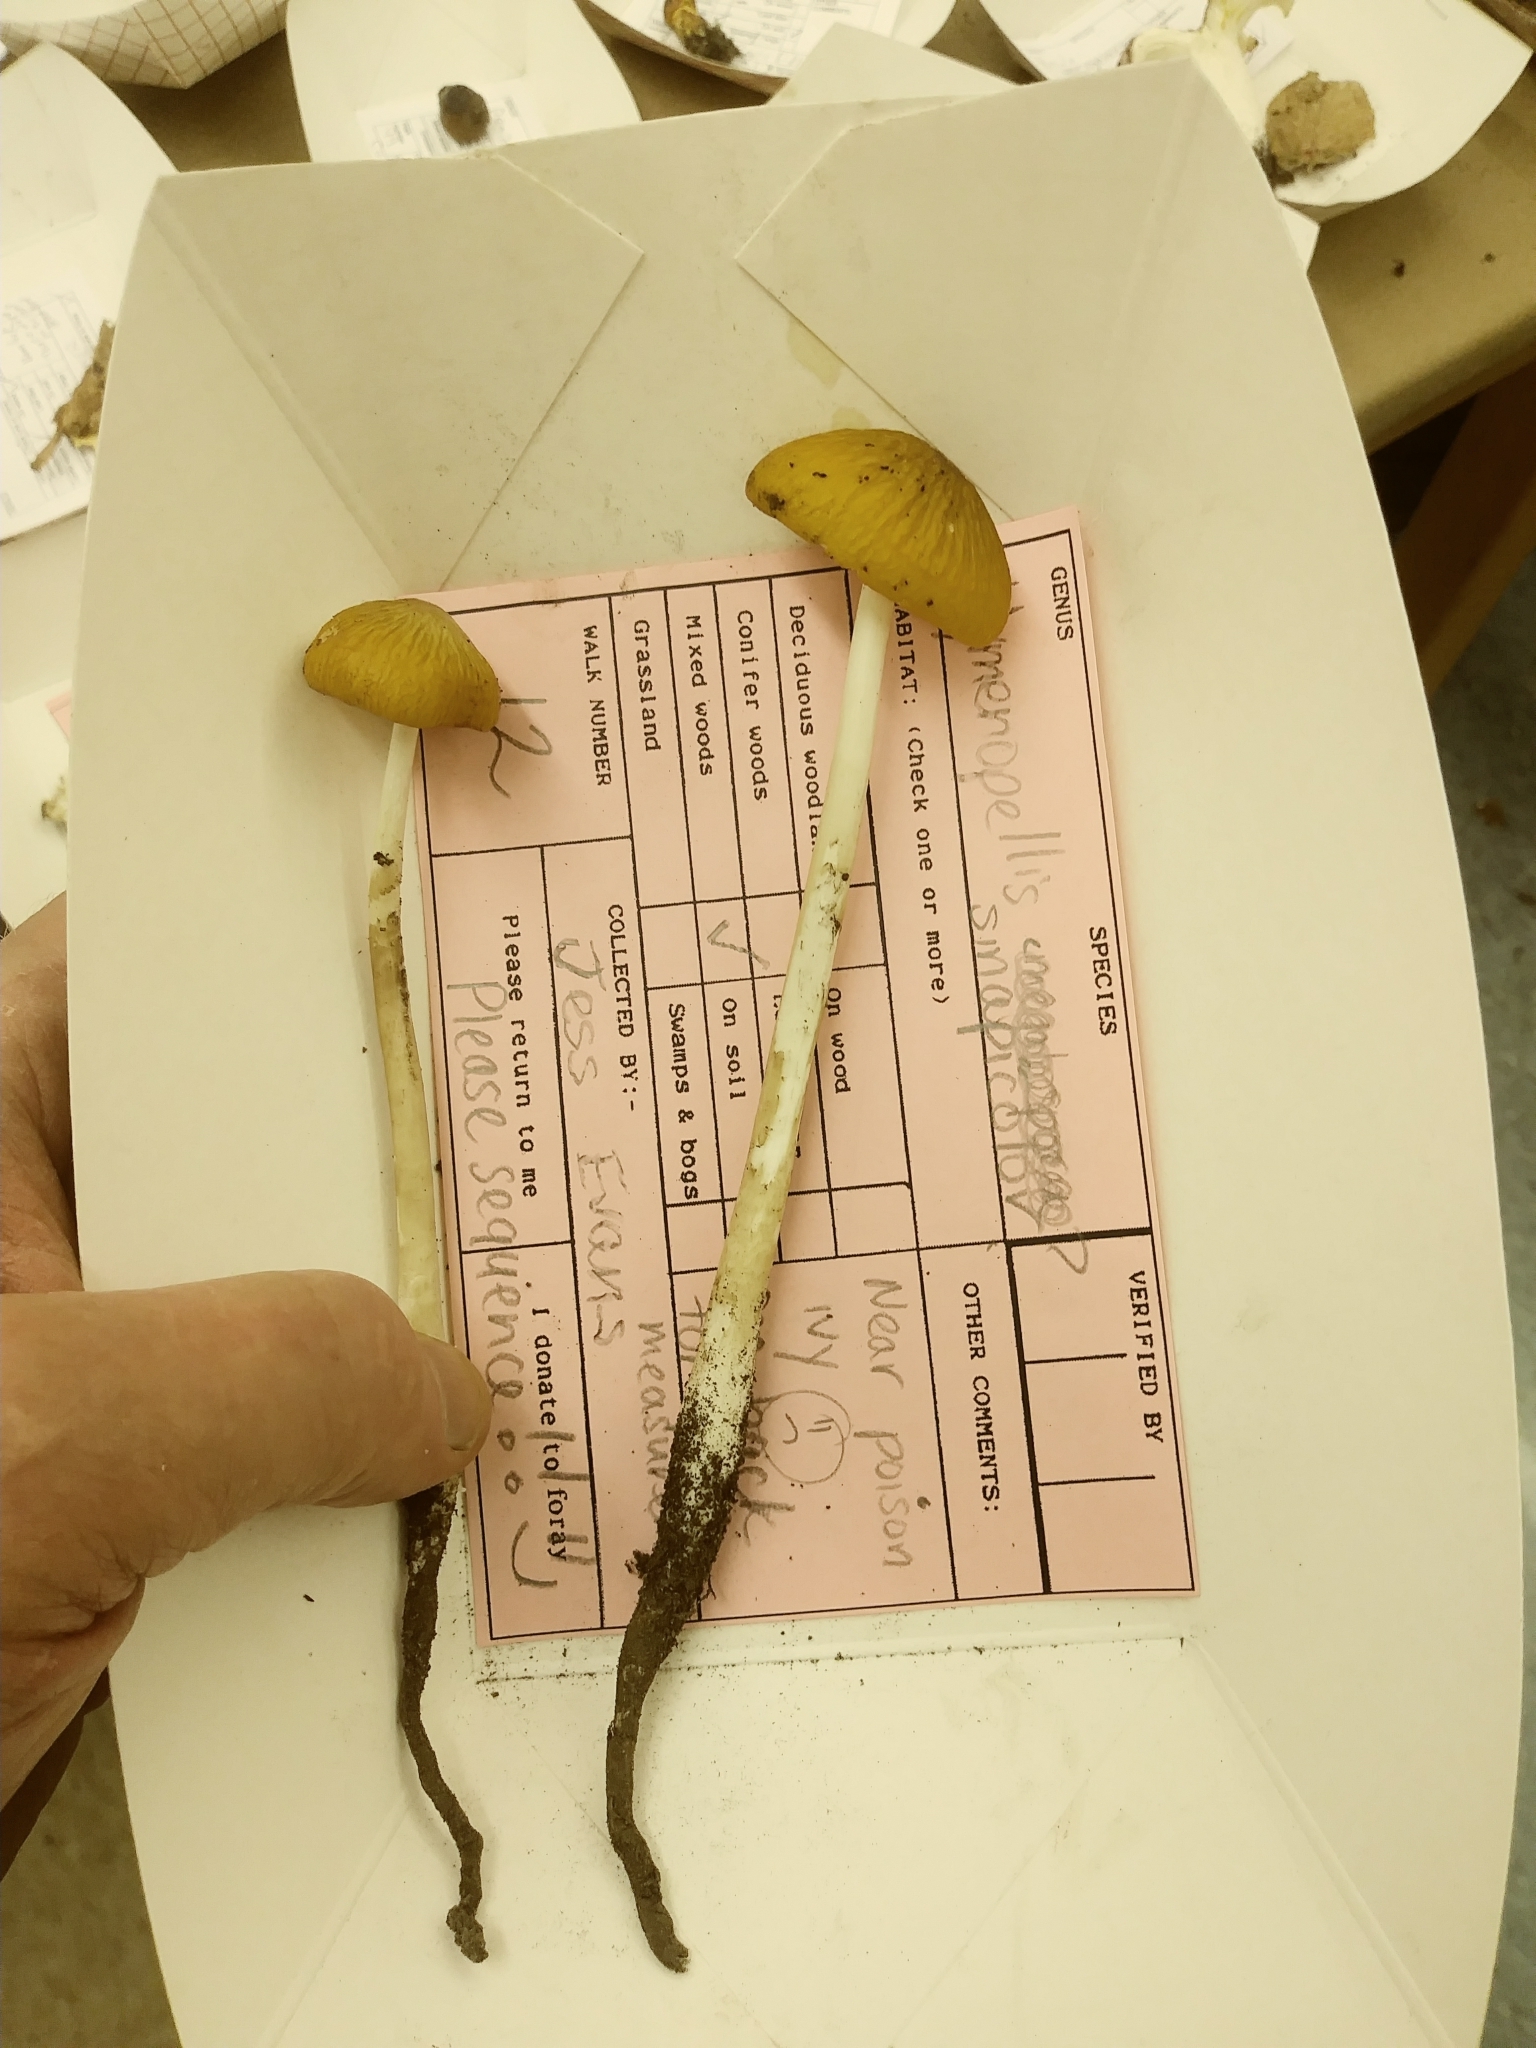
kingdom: Fungi
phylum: Basidiomycota
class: Agaricomycetes
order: Agaricales
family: Physalacriaceae
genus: Hymenopellis
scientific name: Hymenopellis incognita
